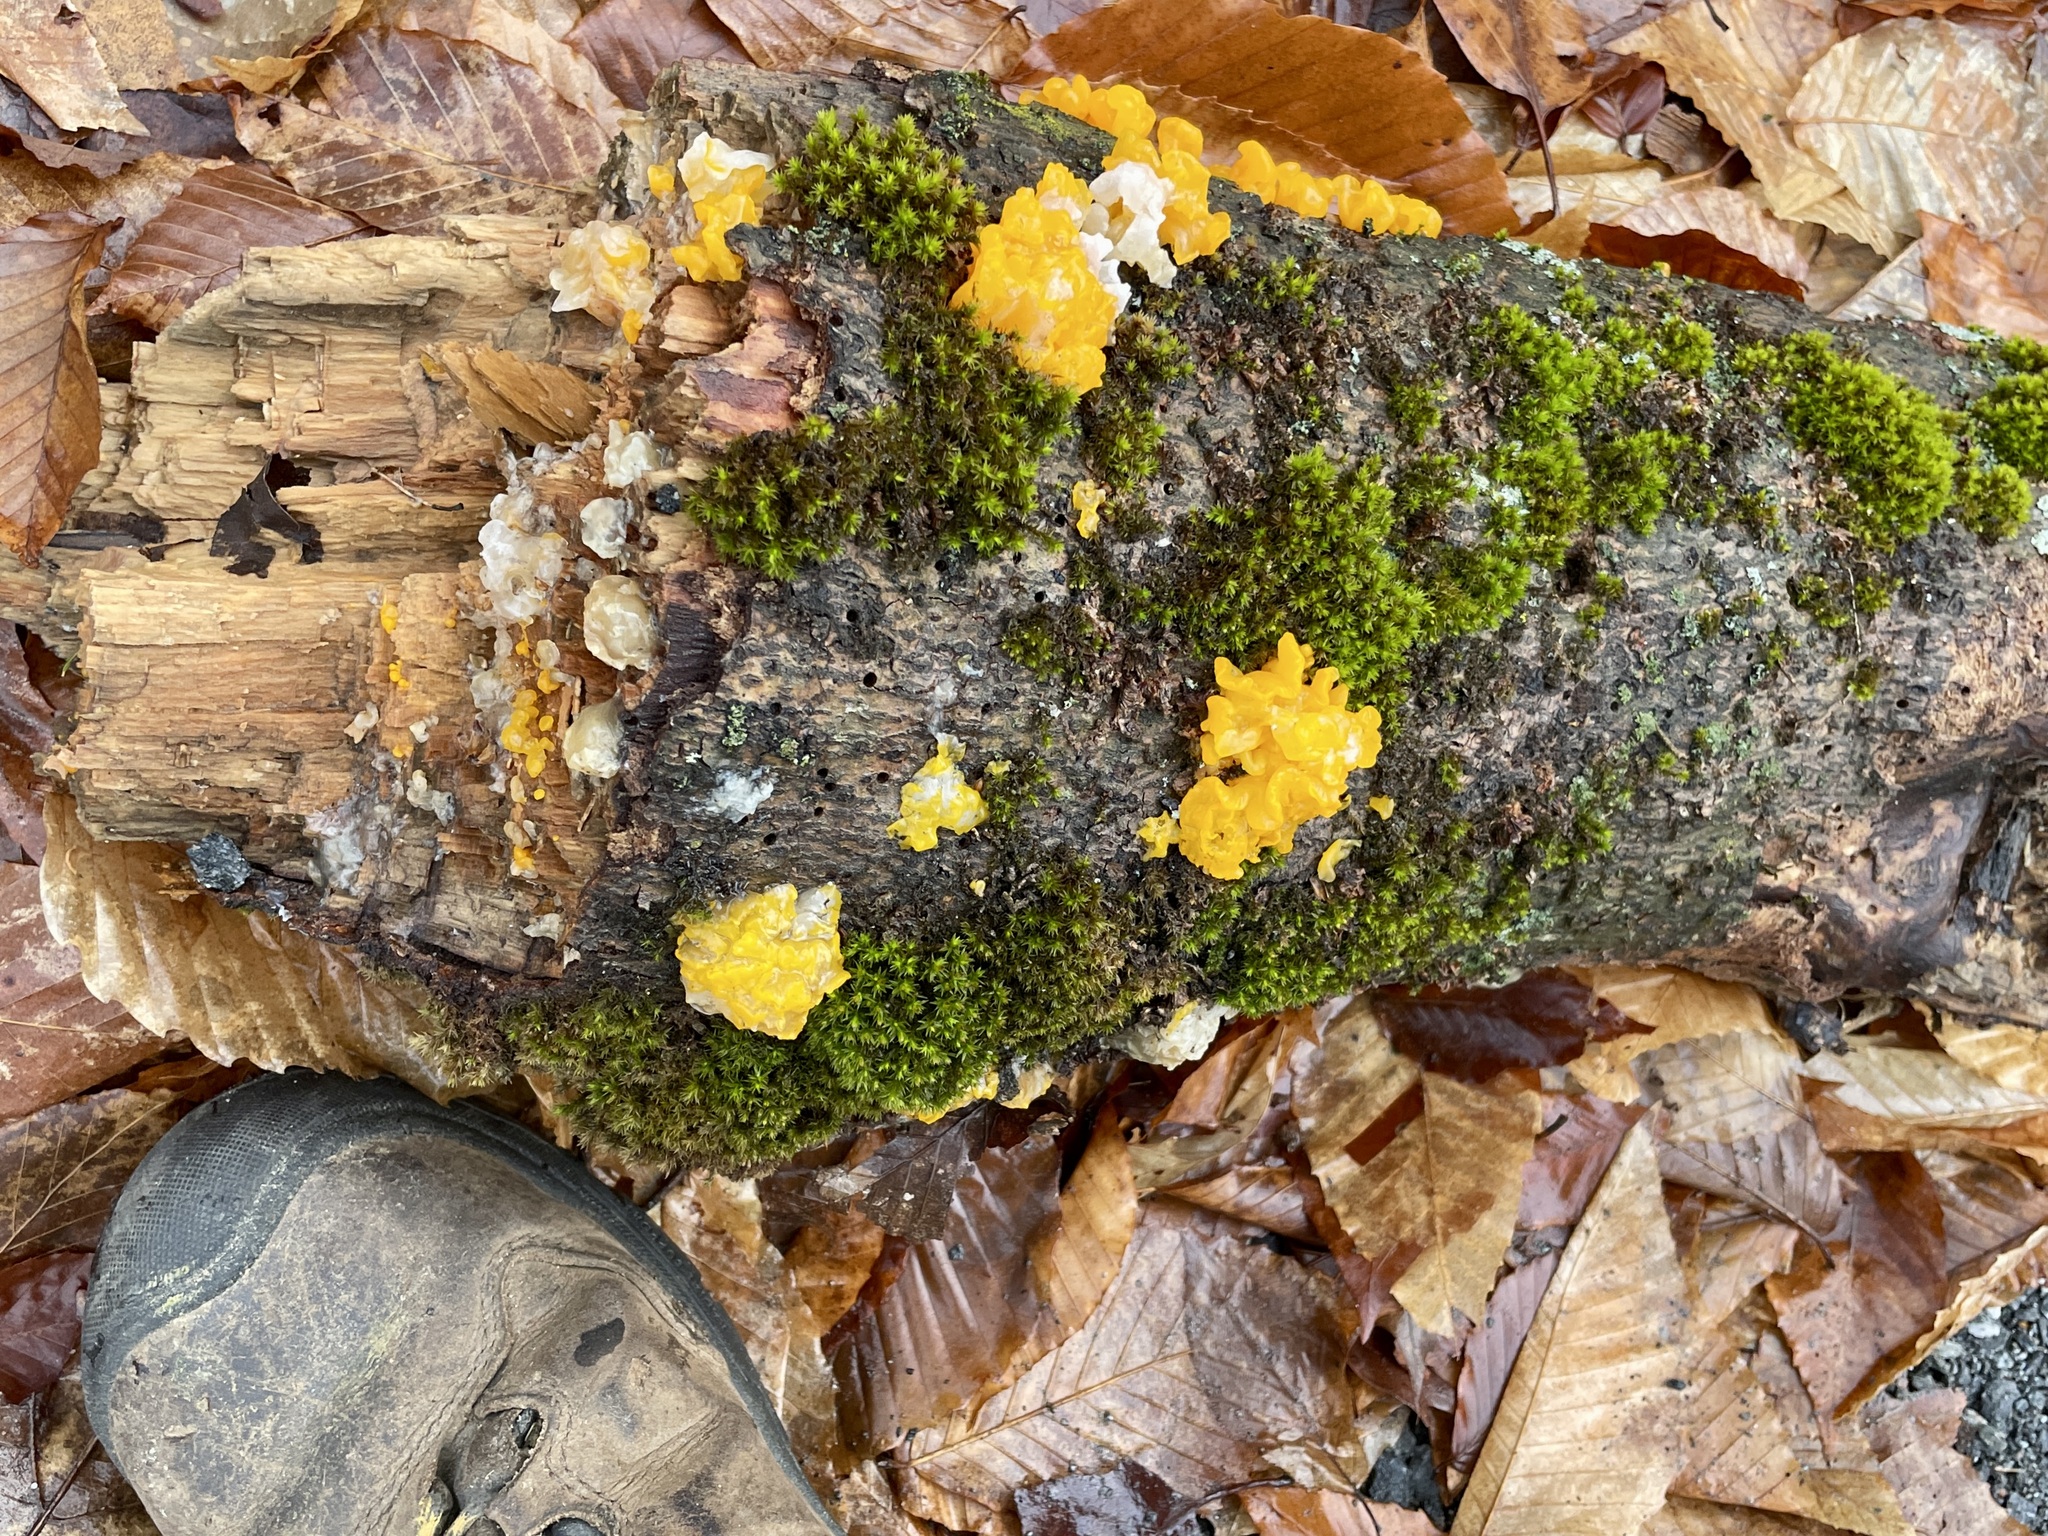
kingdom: Fungi
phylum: Basidiomycota
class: Tremellomycetes
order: Tremellales
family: Tremellaceae
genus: Tremella
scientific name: Tremella mesenterica
